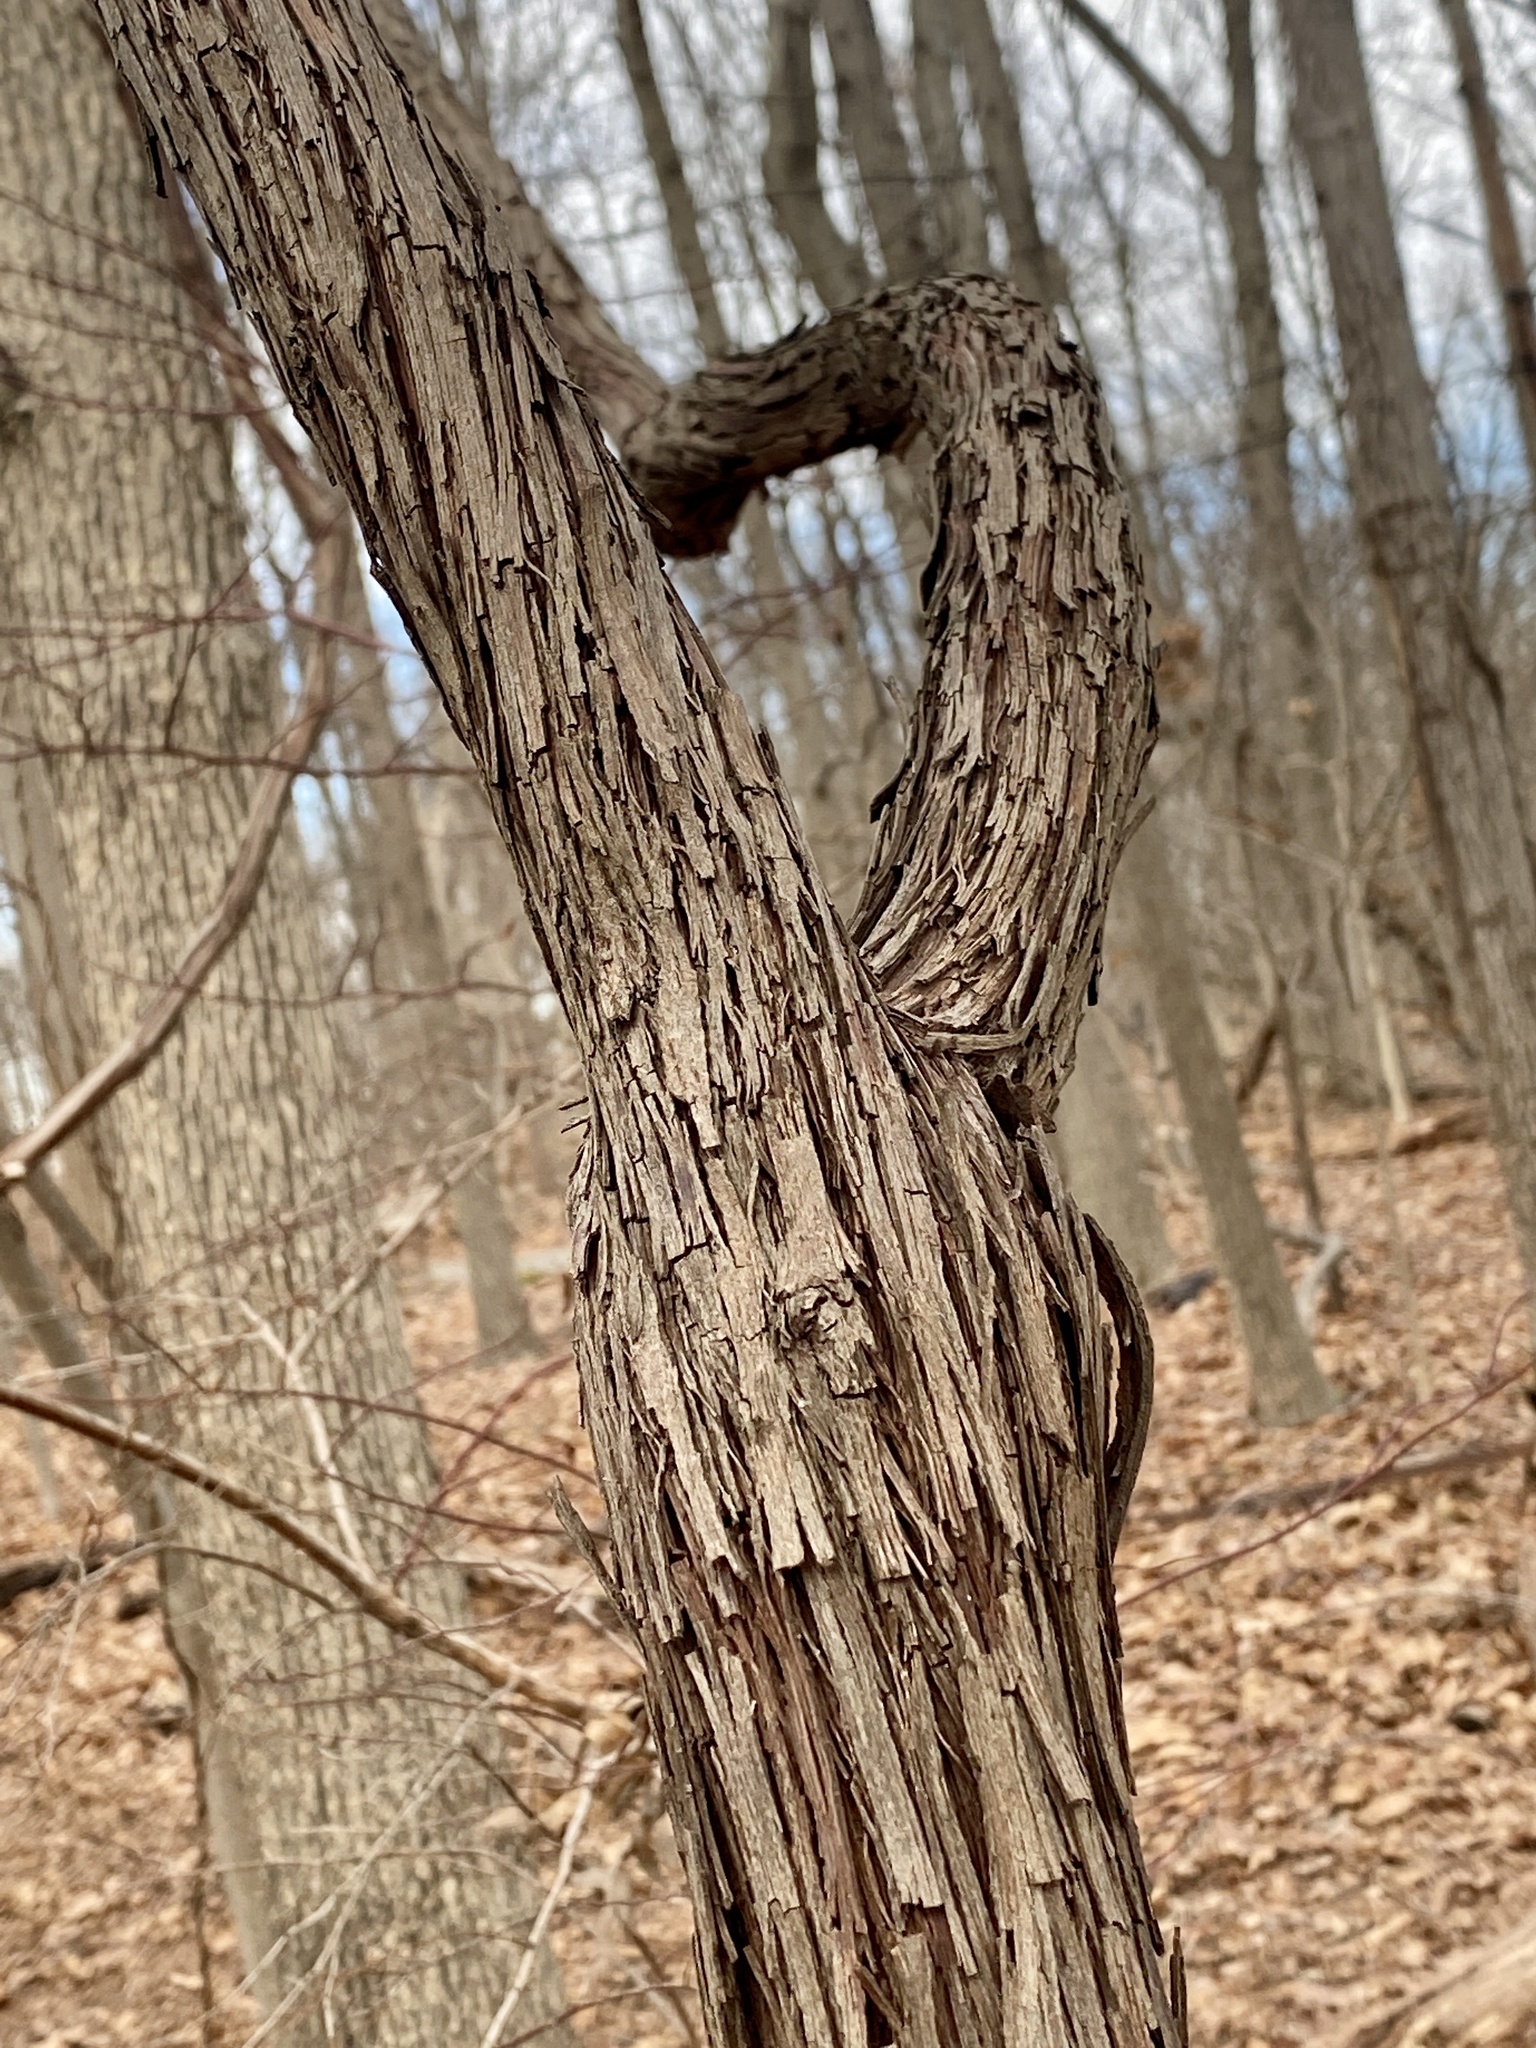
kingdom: Plantae
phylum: Tracheophyta
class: Magnoliopsida
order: Vitales
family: Vitaceae
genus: Vitis
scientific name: Vitis
